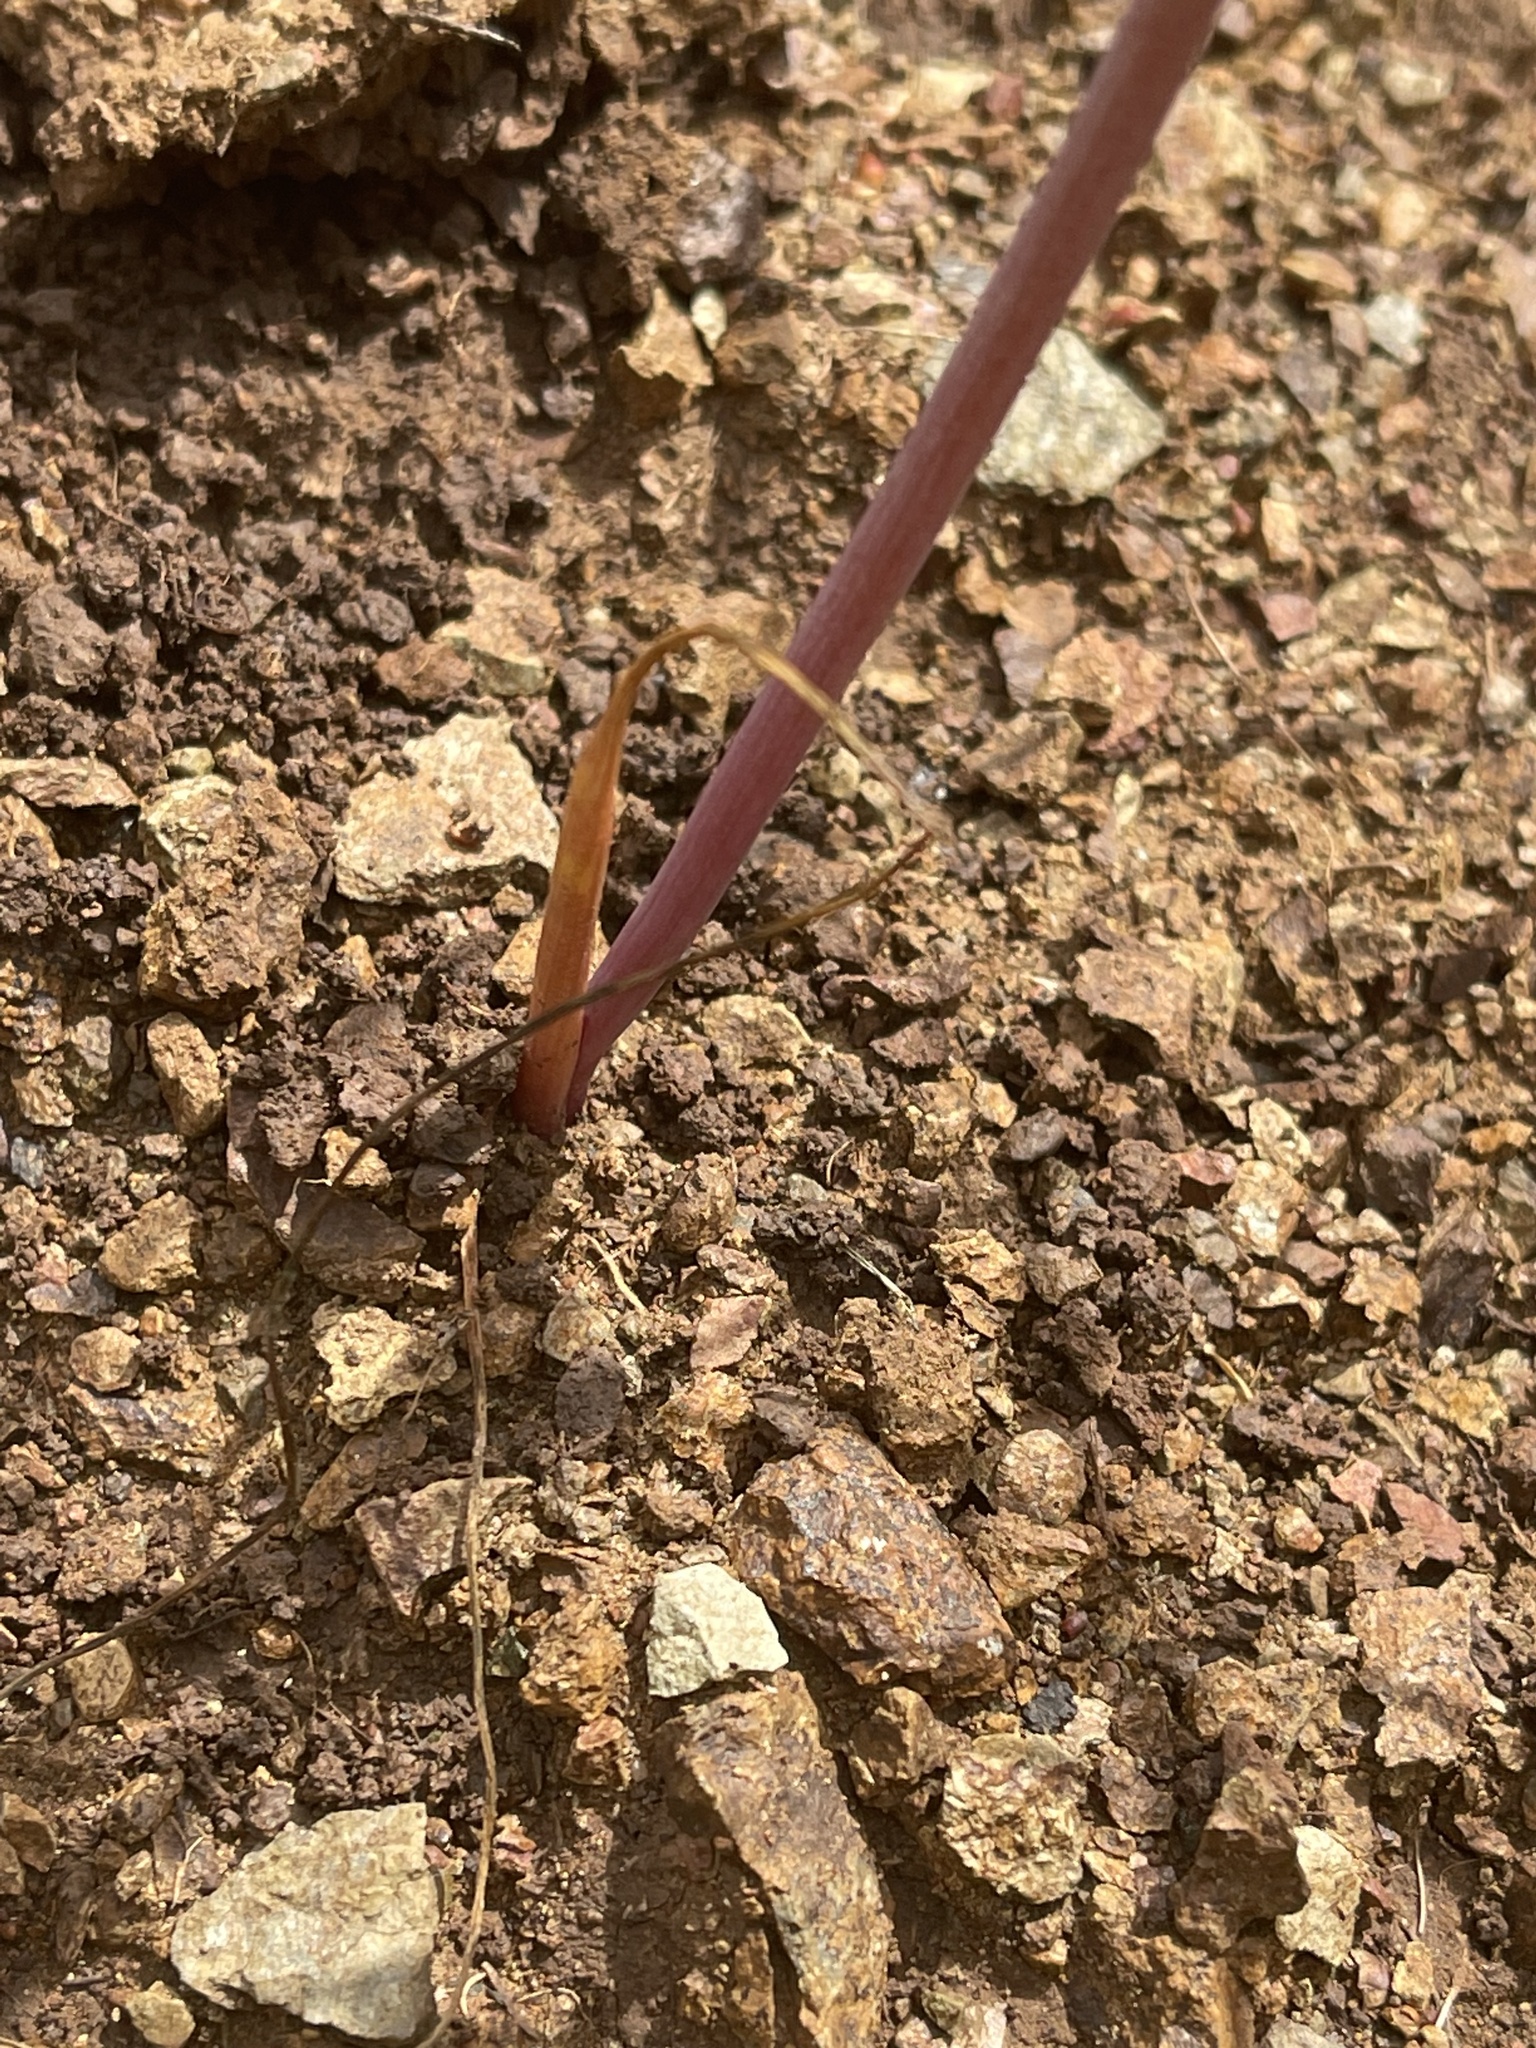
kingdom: Plantae
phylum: Tracheophyta
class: Liliopsida
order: Asparagales
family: Amaryllidaceae
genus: Allium
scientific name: Allium crispum
